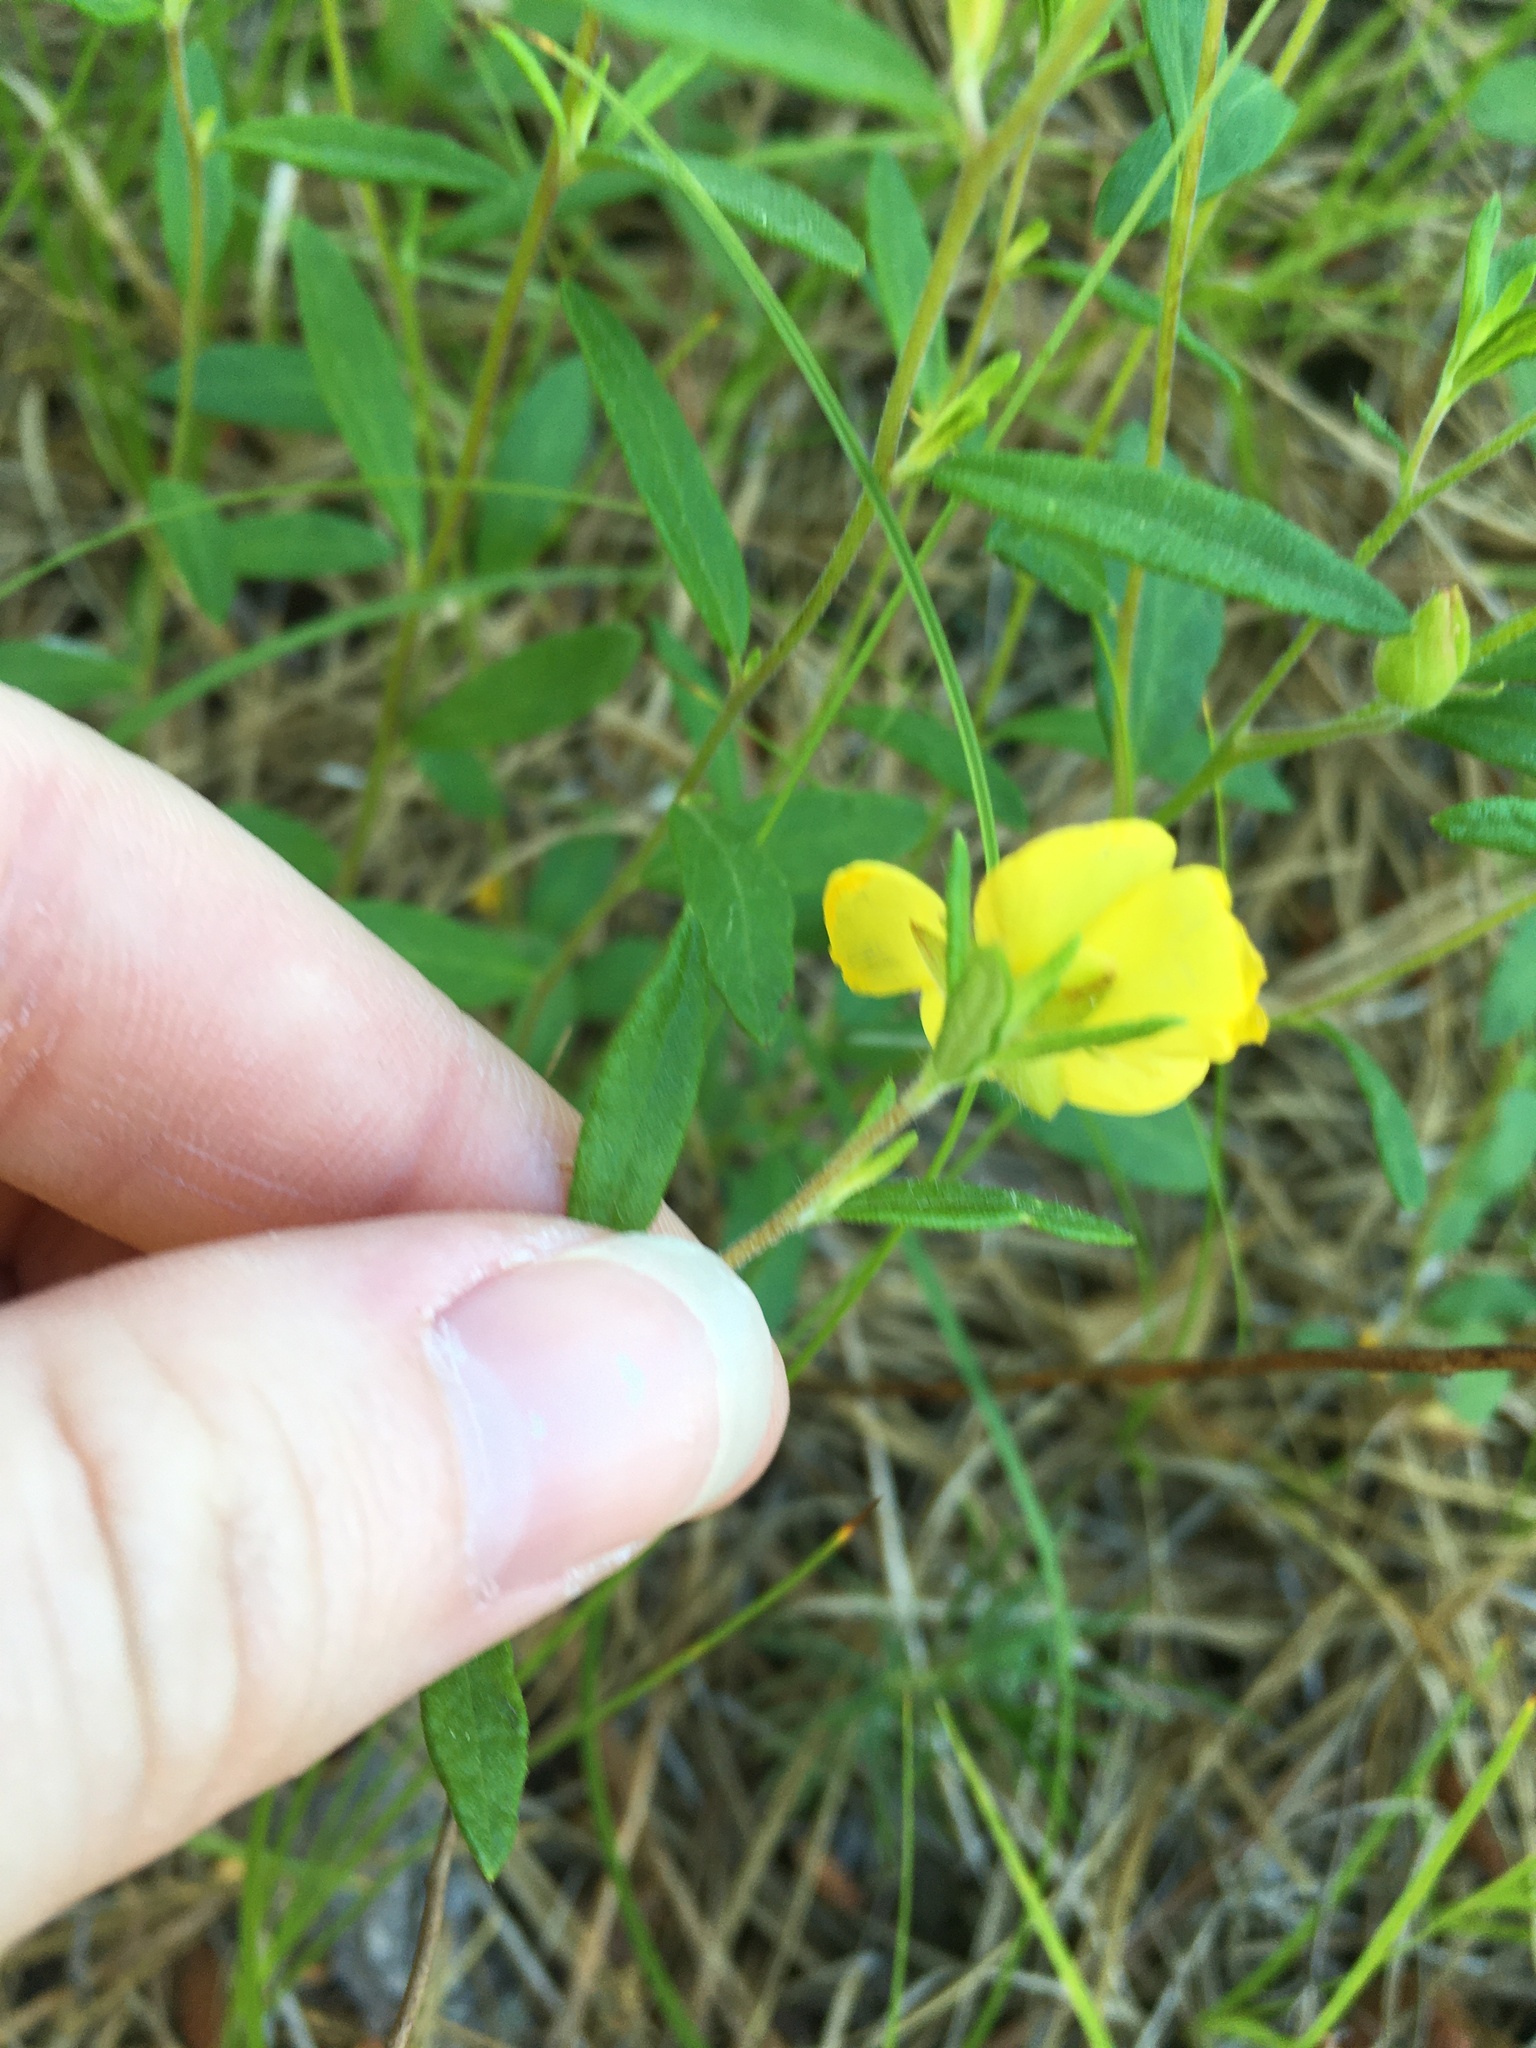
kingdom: Plantae
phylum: Tracheophyta
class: Magnoliopsida
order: Malvales
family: Cistaceae
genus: Crocanthemum
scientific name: Crocanthemum canadense
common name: Canada frostweed
